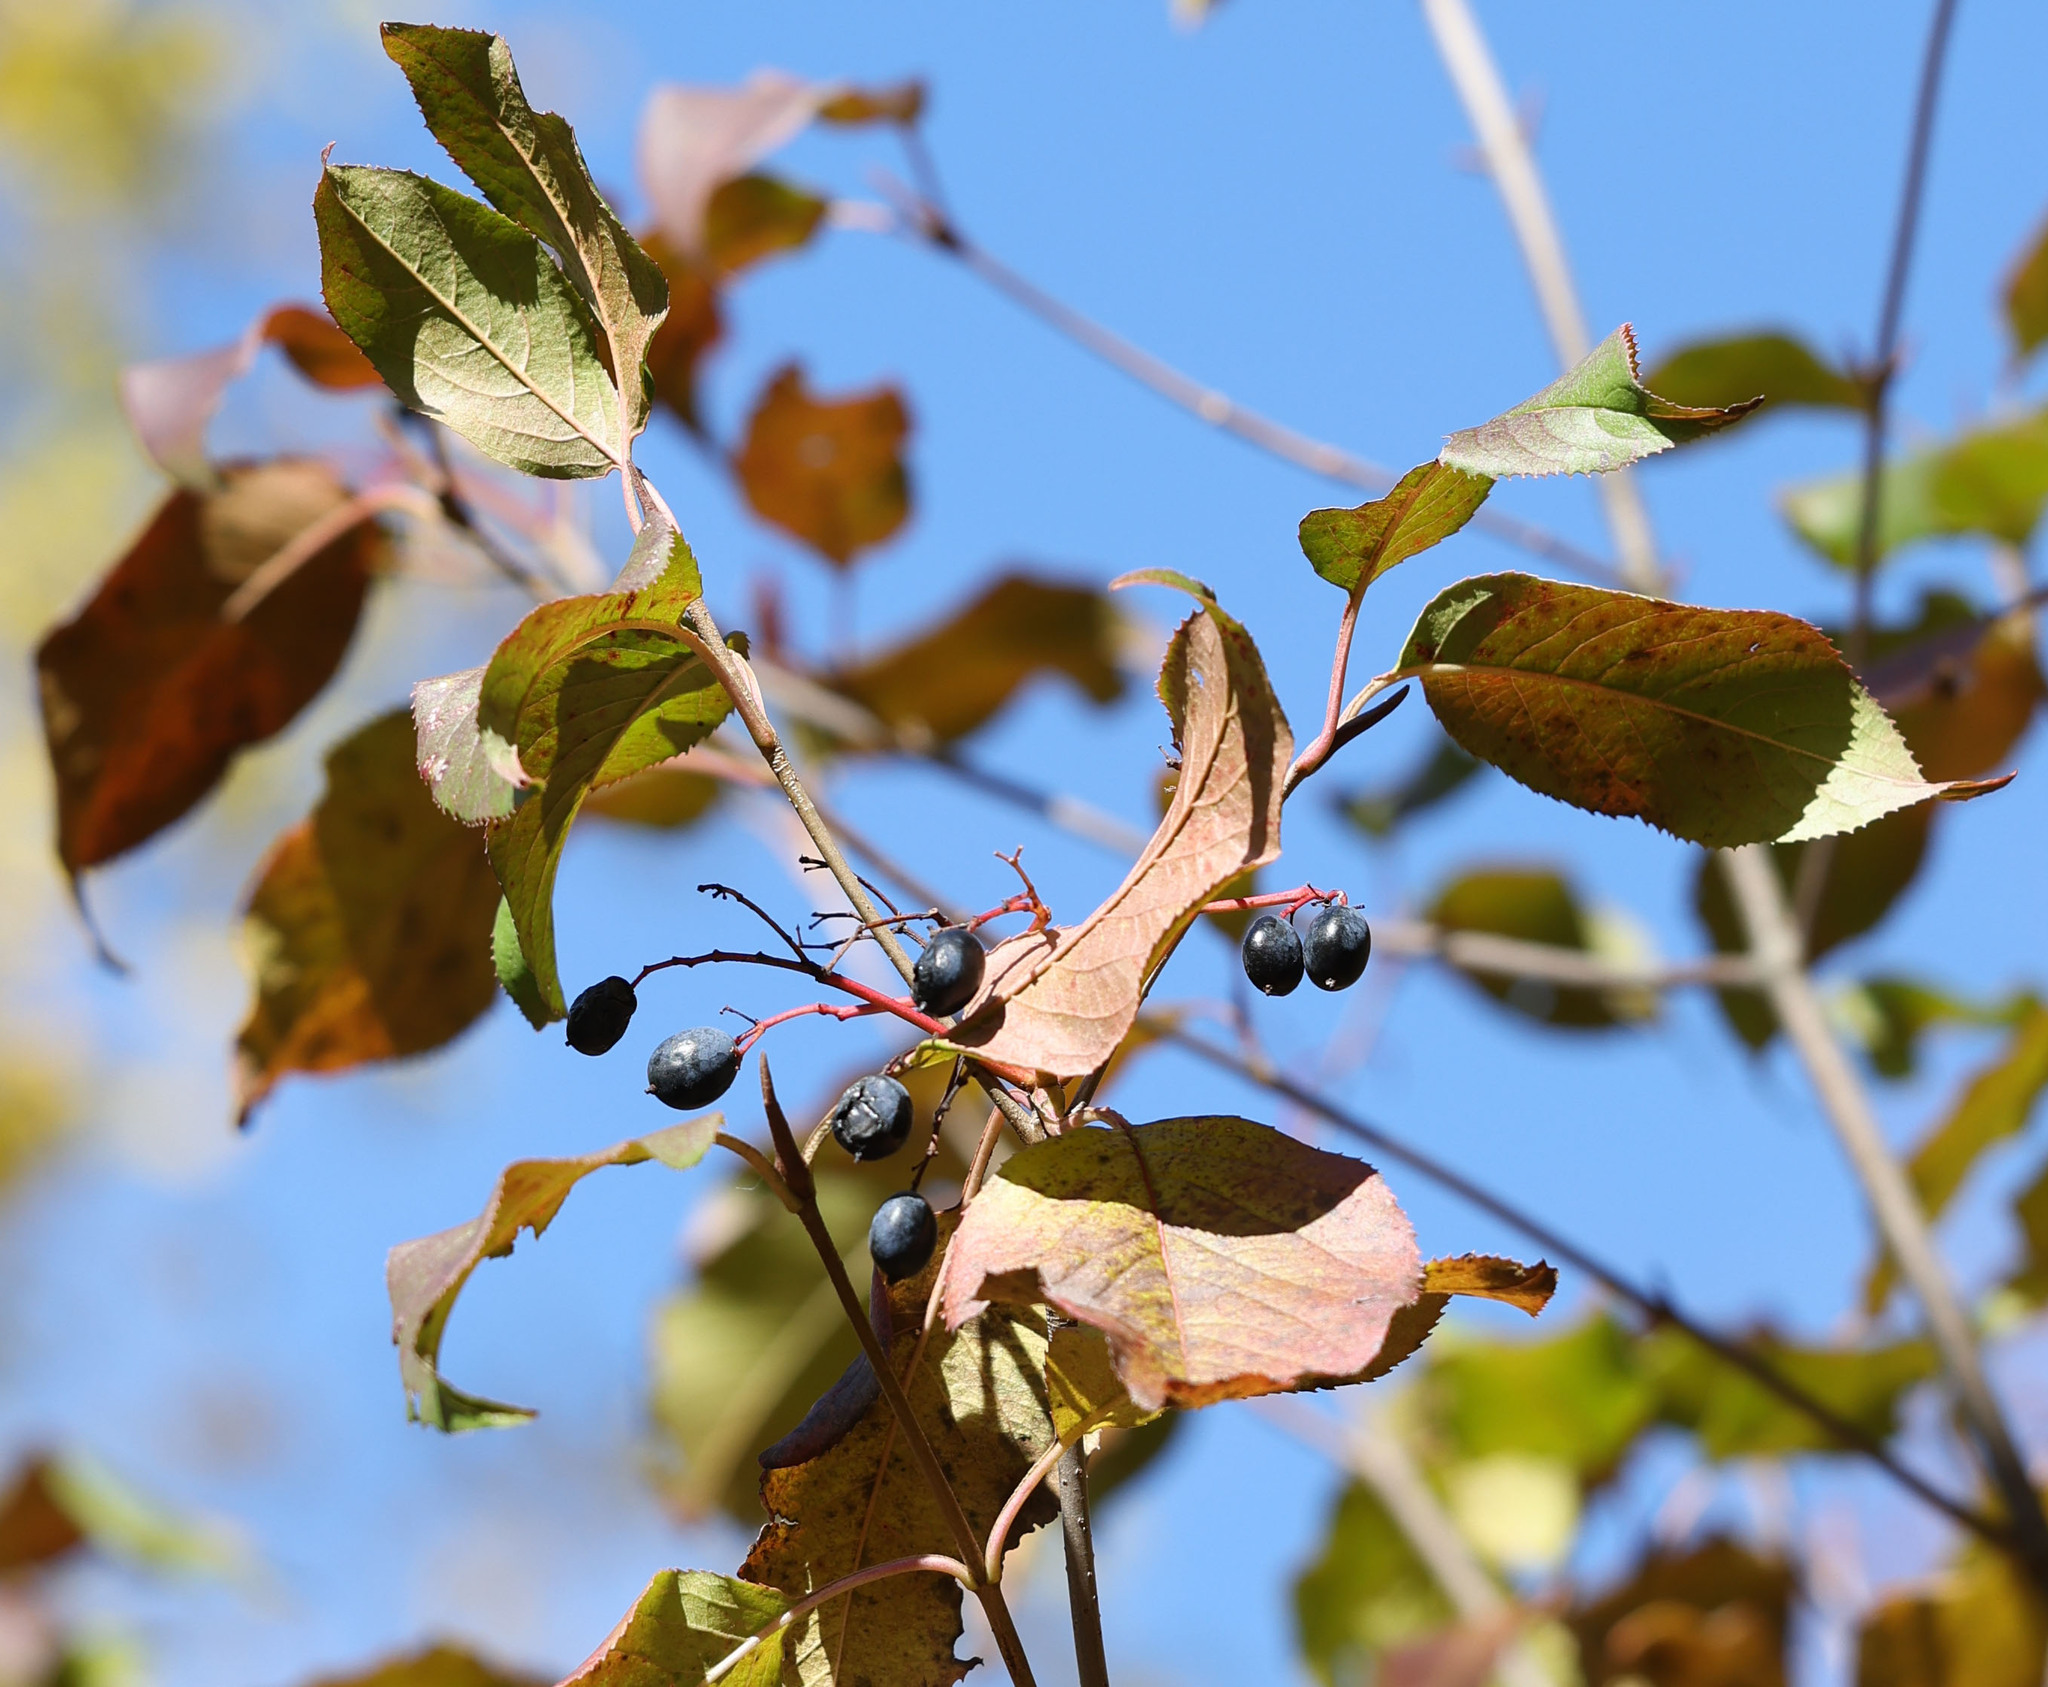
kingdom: Plantae
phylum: Tracheophyta
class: Magnoliopsida
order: Dipsacales
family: Viburnaceae
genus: Viburnum
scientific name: Viburnum lentago
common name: Black haw
